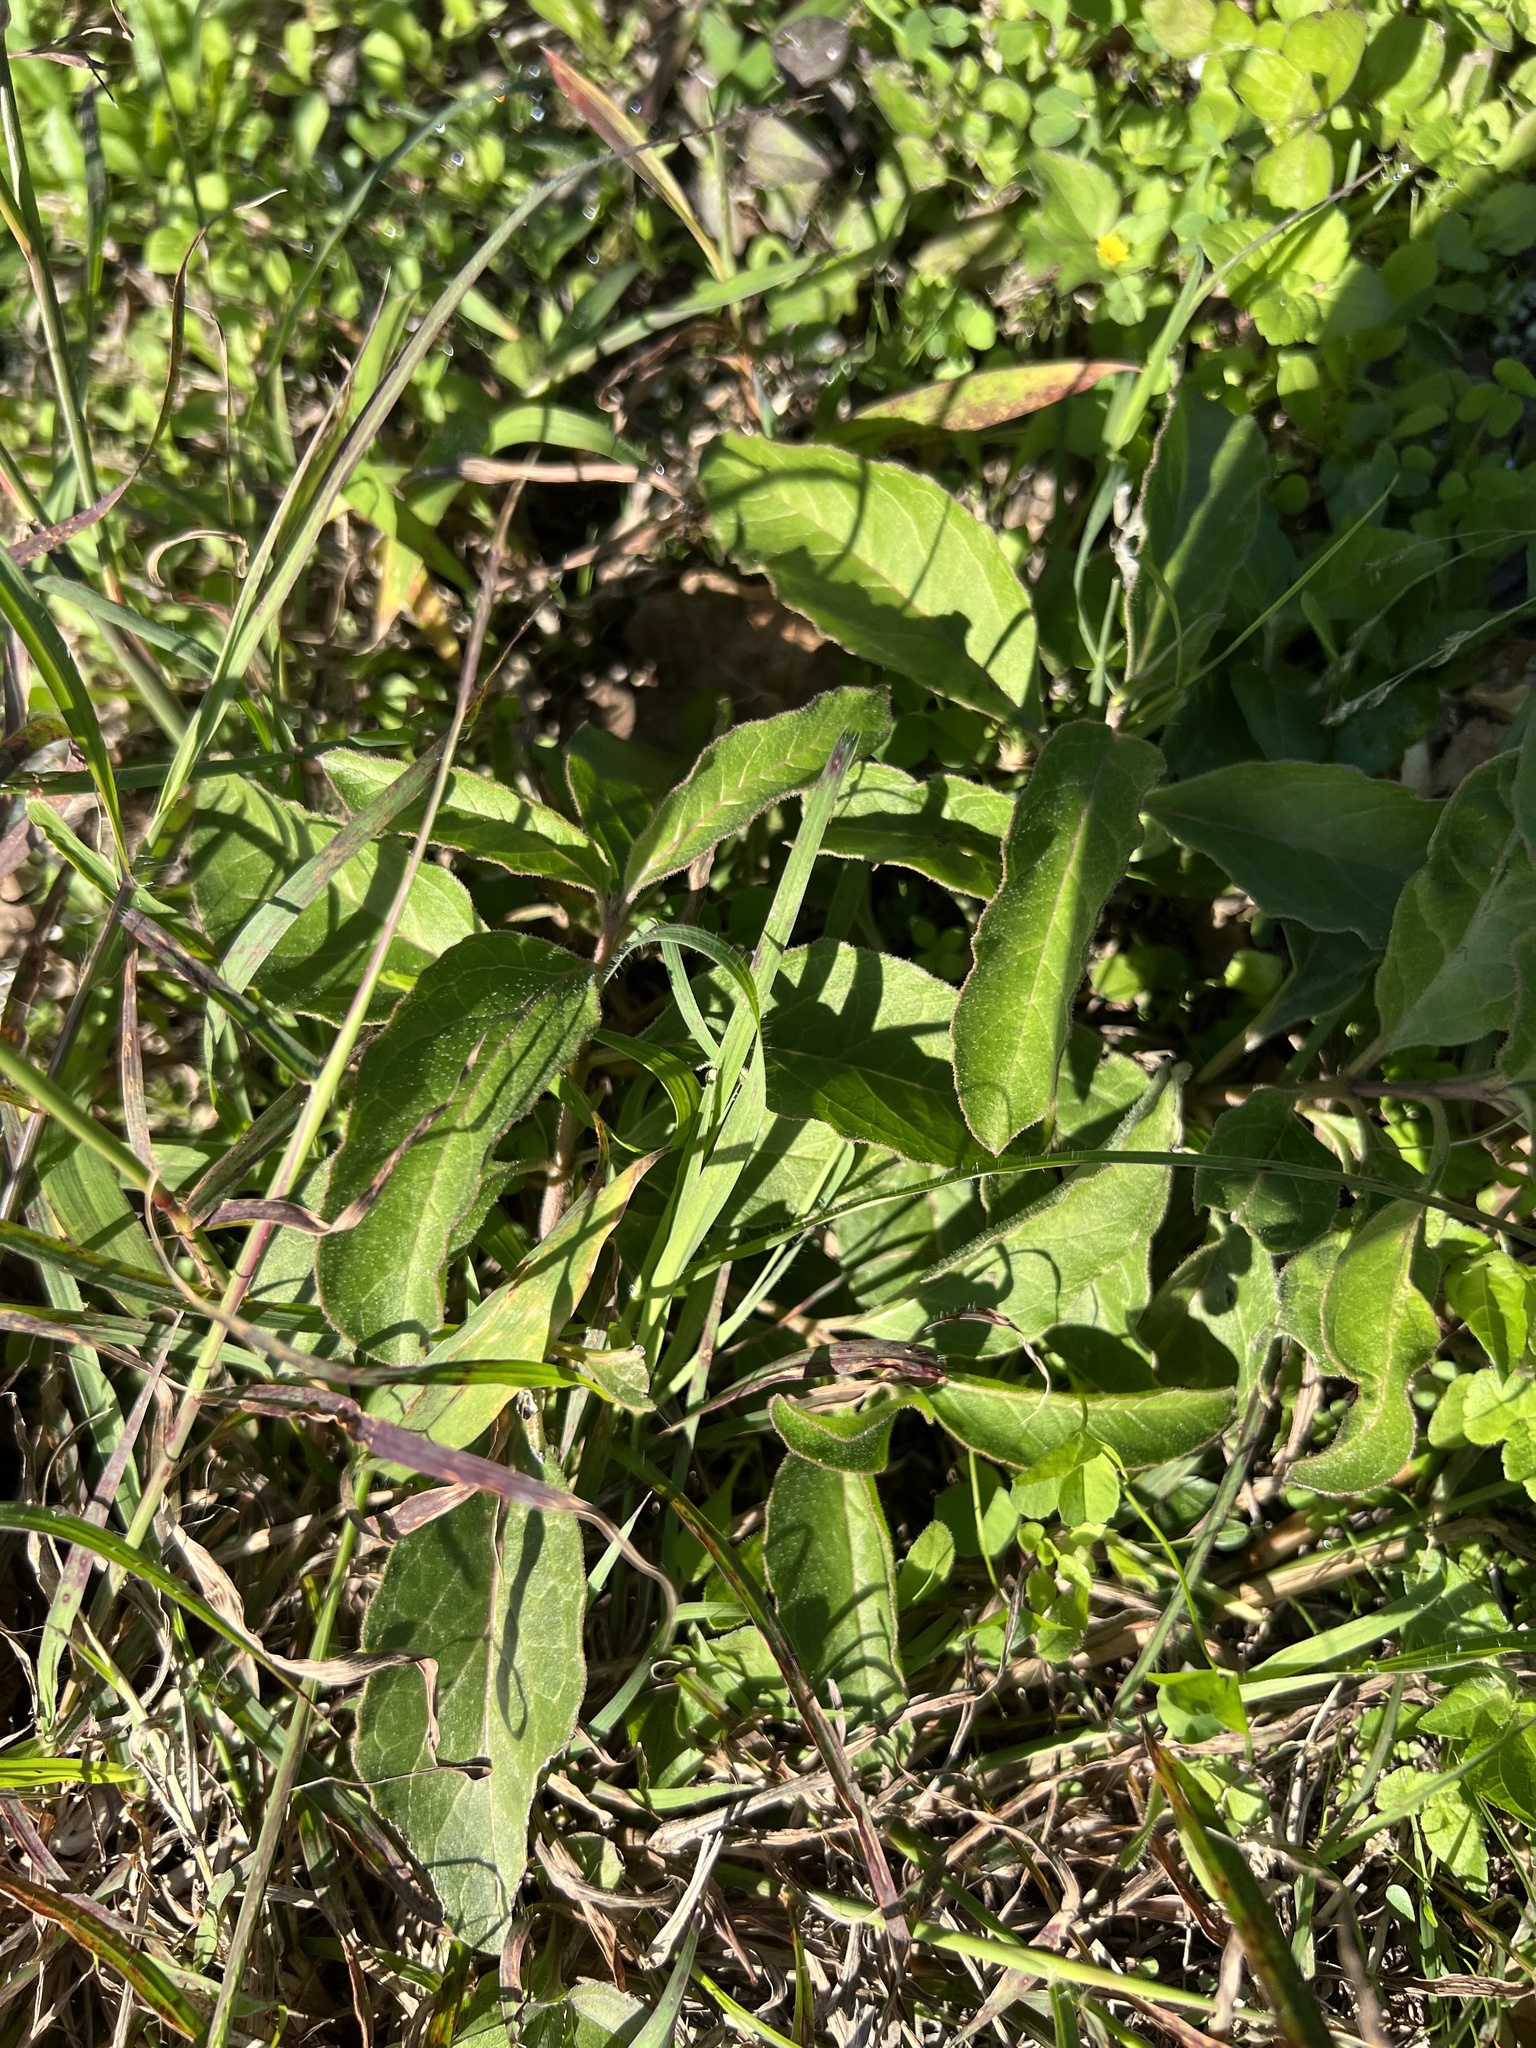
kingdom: Plantae
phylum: Tracheophyta
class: Magnoliopsida
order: Gentianales
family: Apocynaceae
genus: Asclepias
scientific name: Asclepias oenotheroides
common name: Zizotes milkweed
